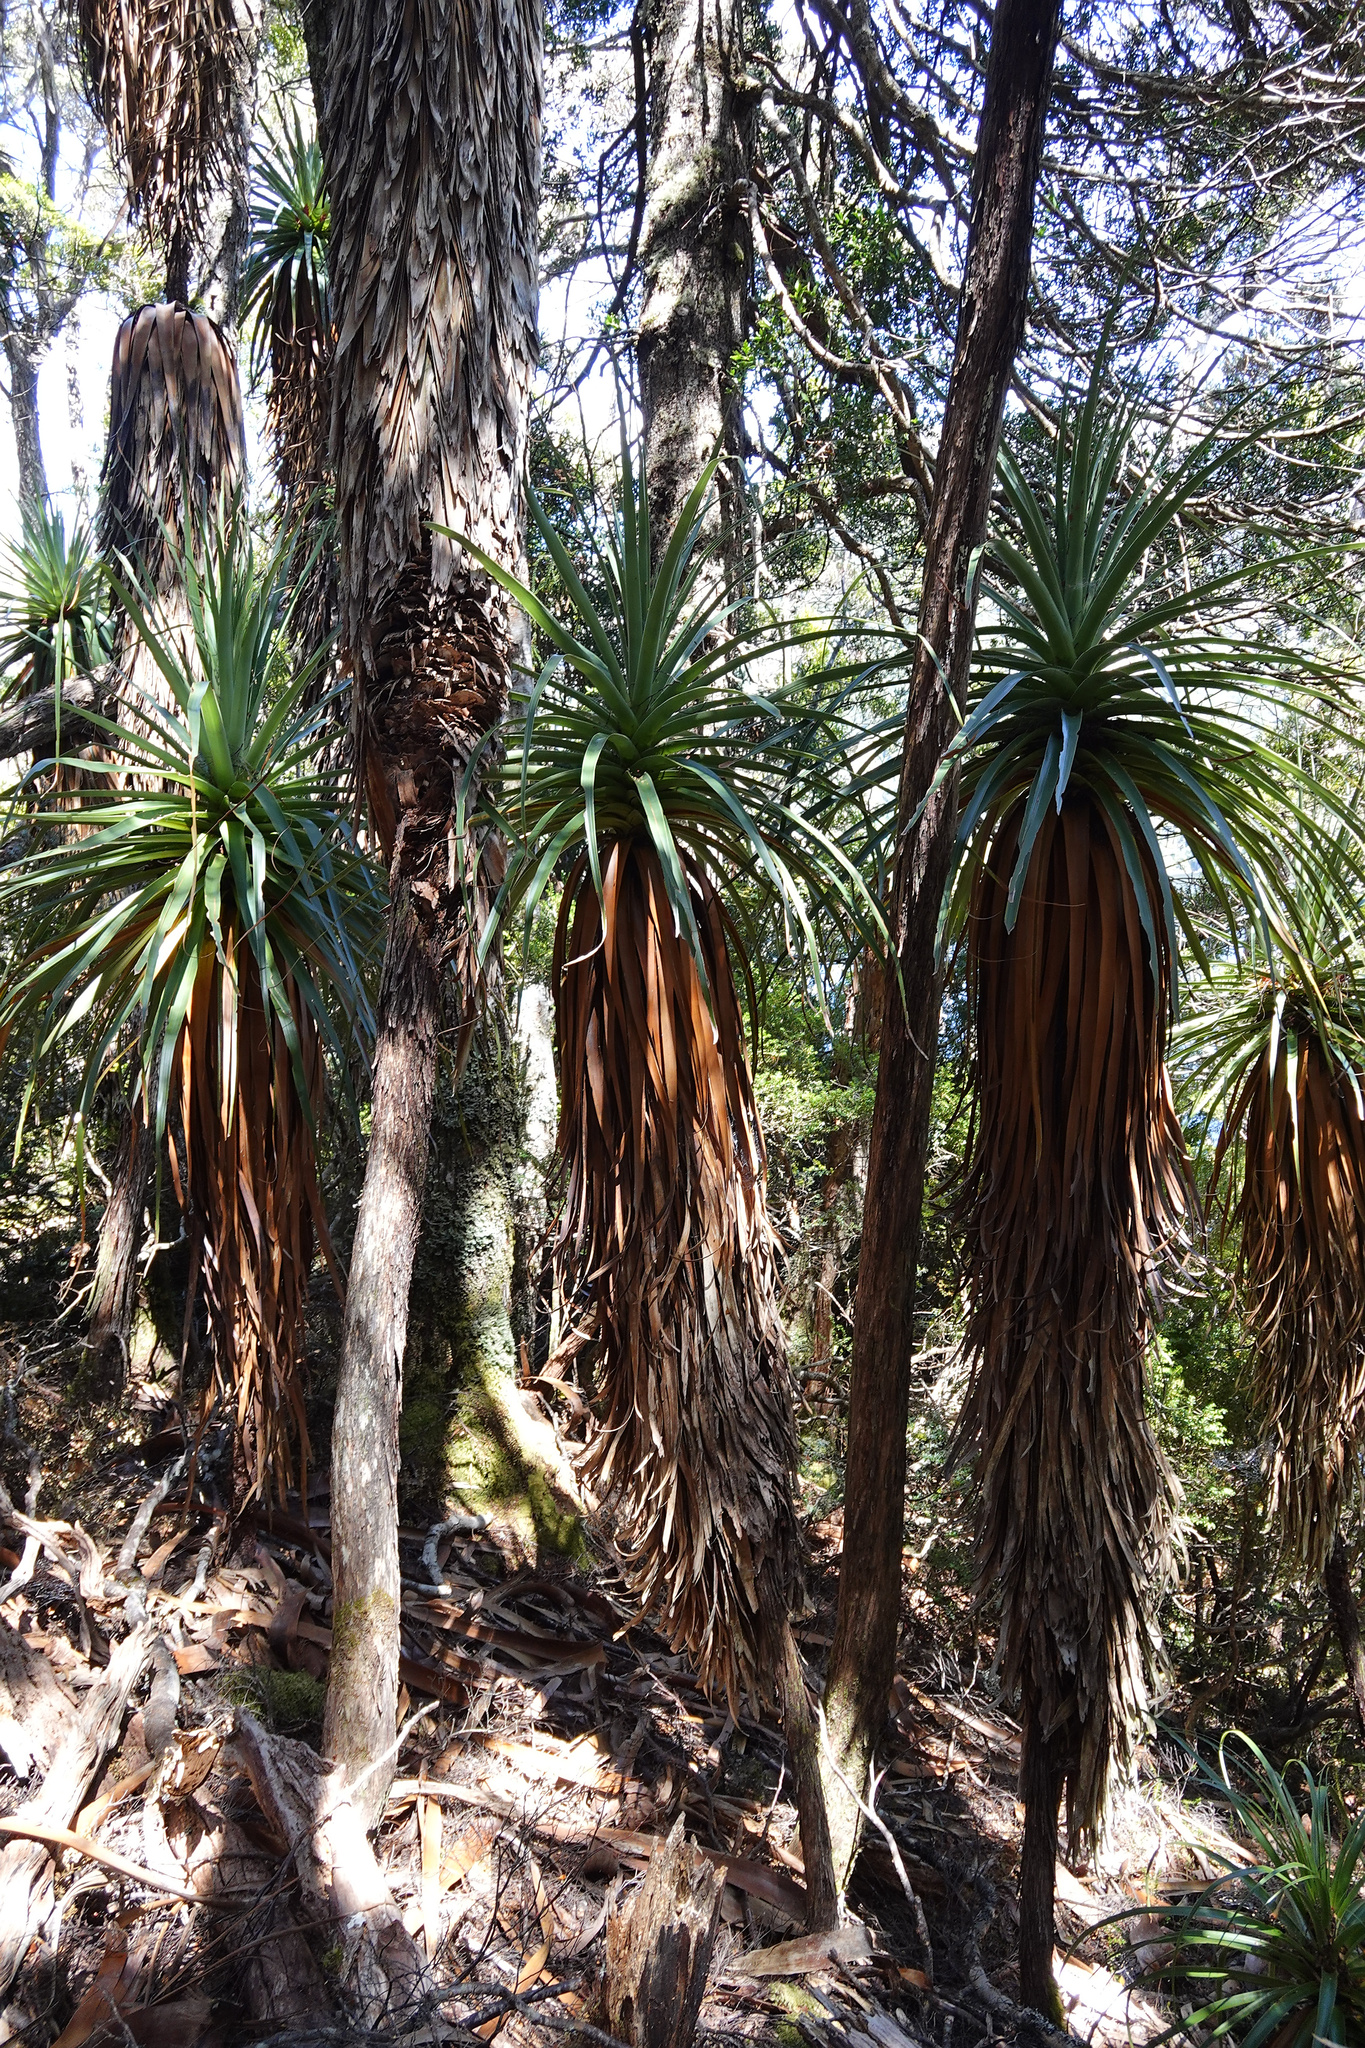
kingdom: Plantae
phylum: Tracheophyta
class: Magnoliopsida
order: Ericales
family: Ericaceae
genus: Dracophyllum
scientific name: Dracophyllum pandanifolium
